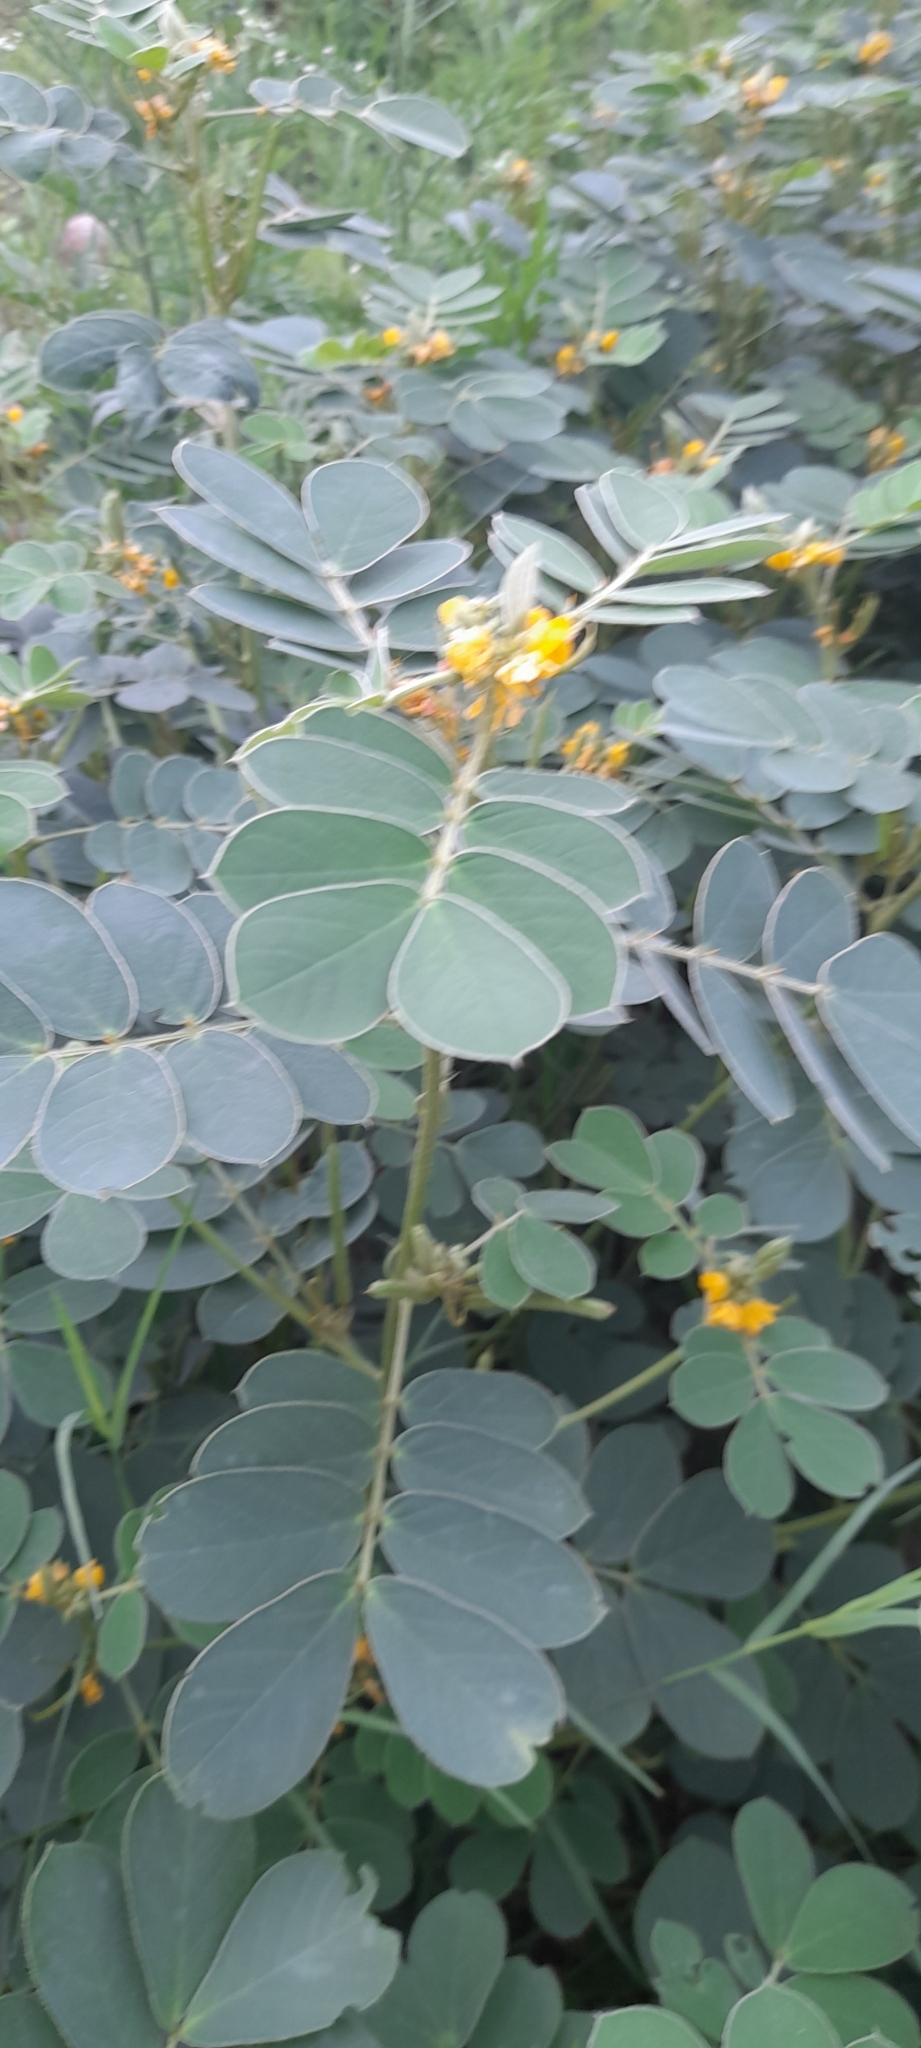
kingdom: Plantae
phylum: Tracheophyta
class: Magnoliopsida
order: Fabales
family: Fabaceae
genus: Senna
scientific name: Senna uniflora
